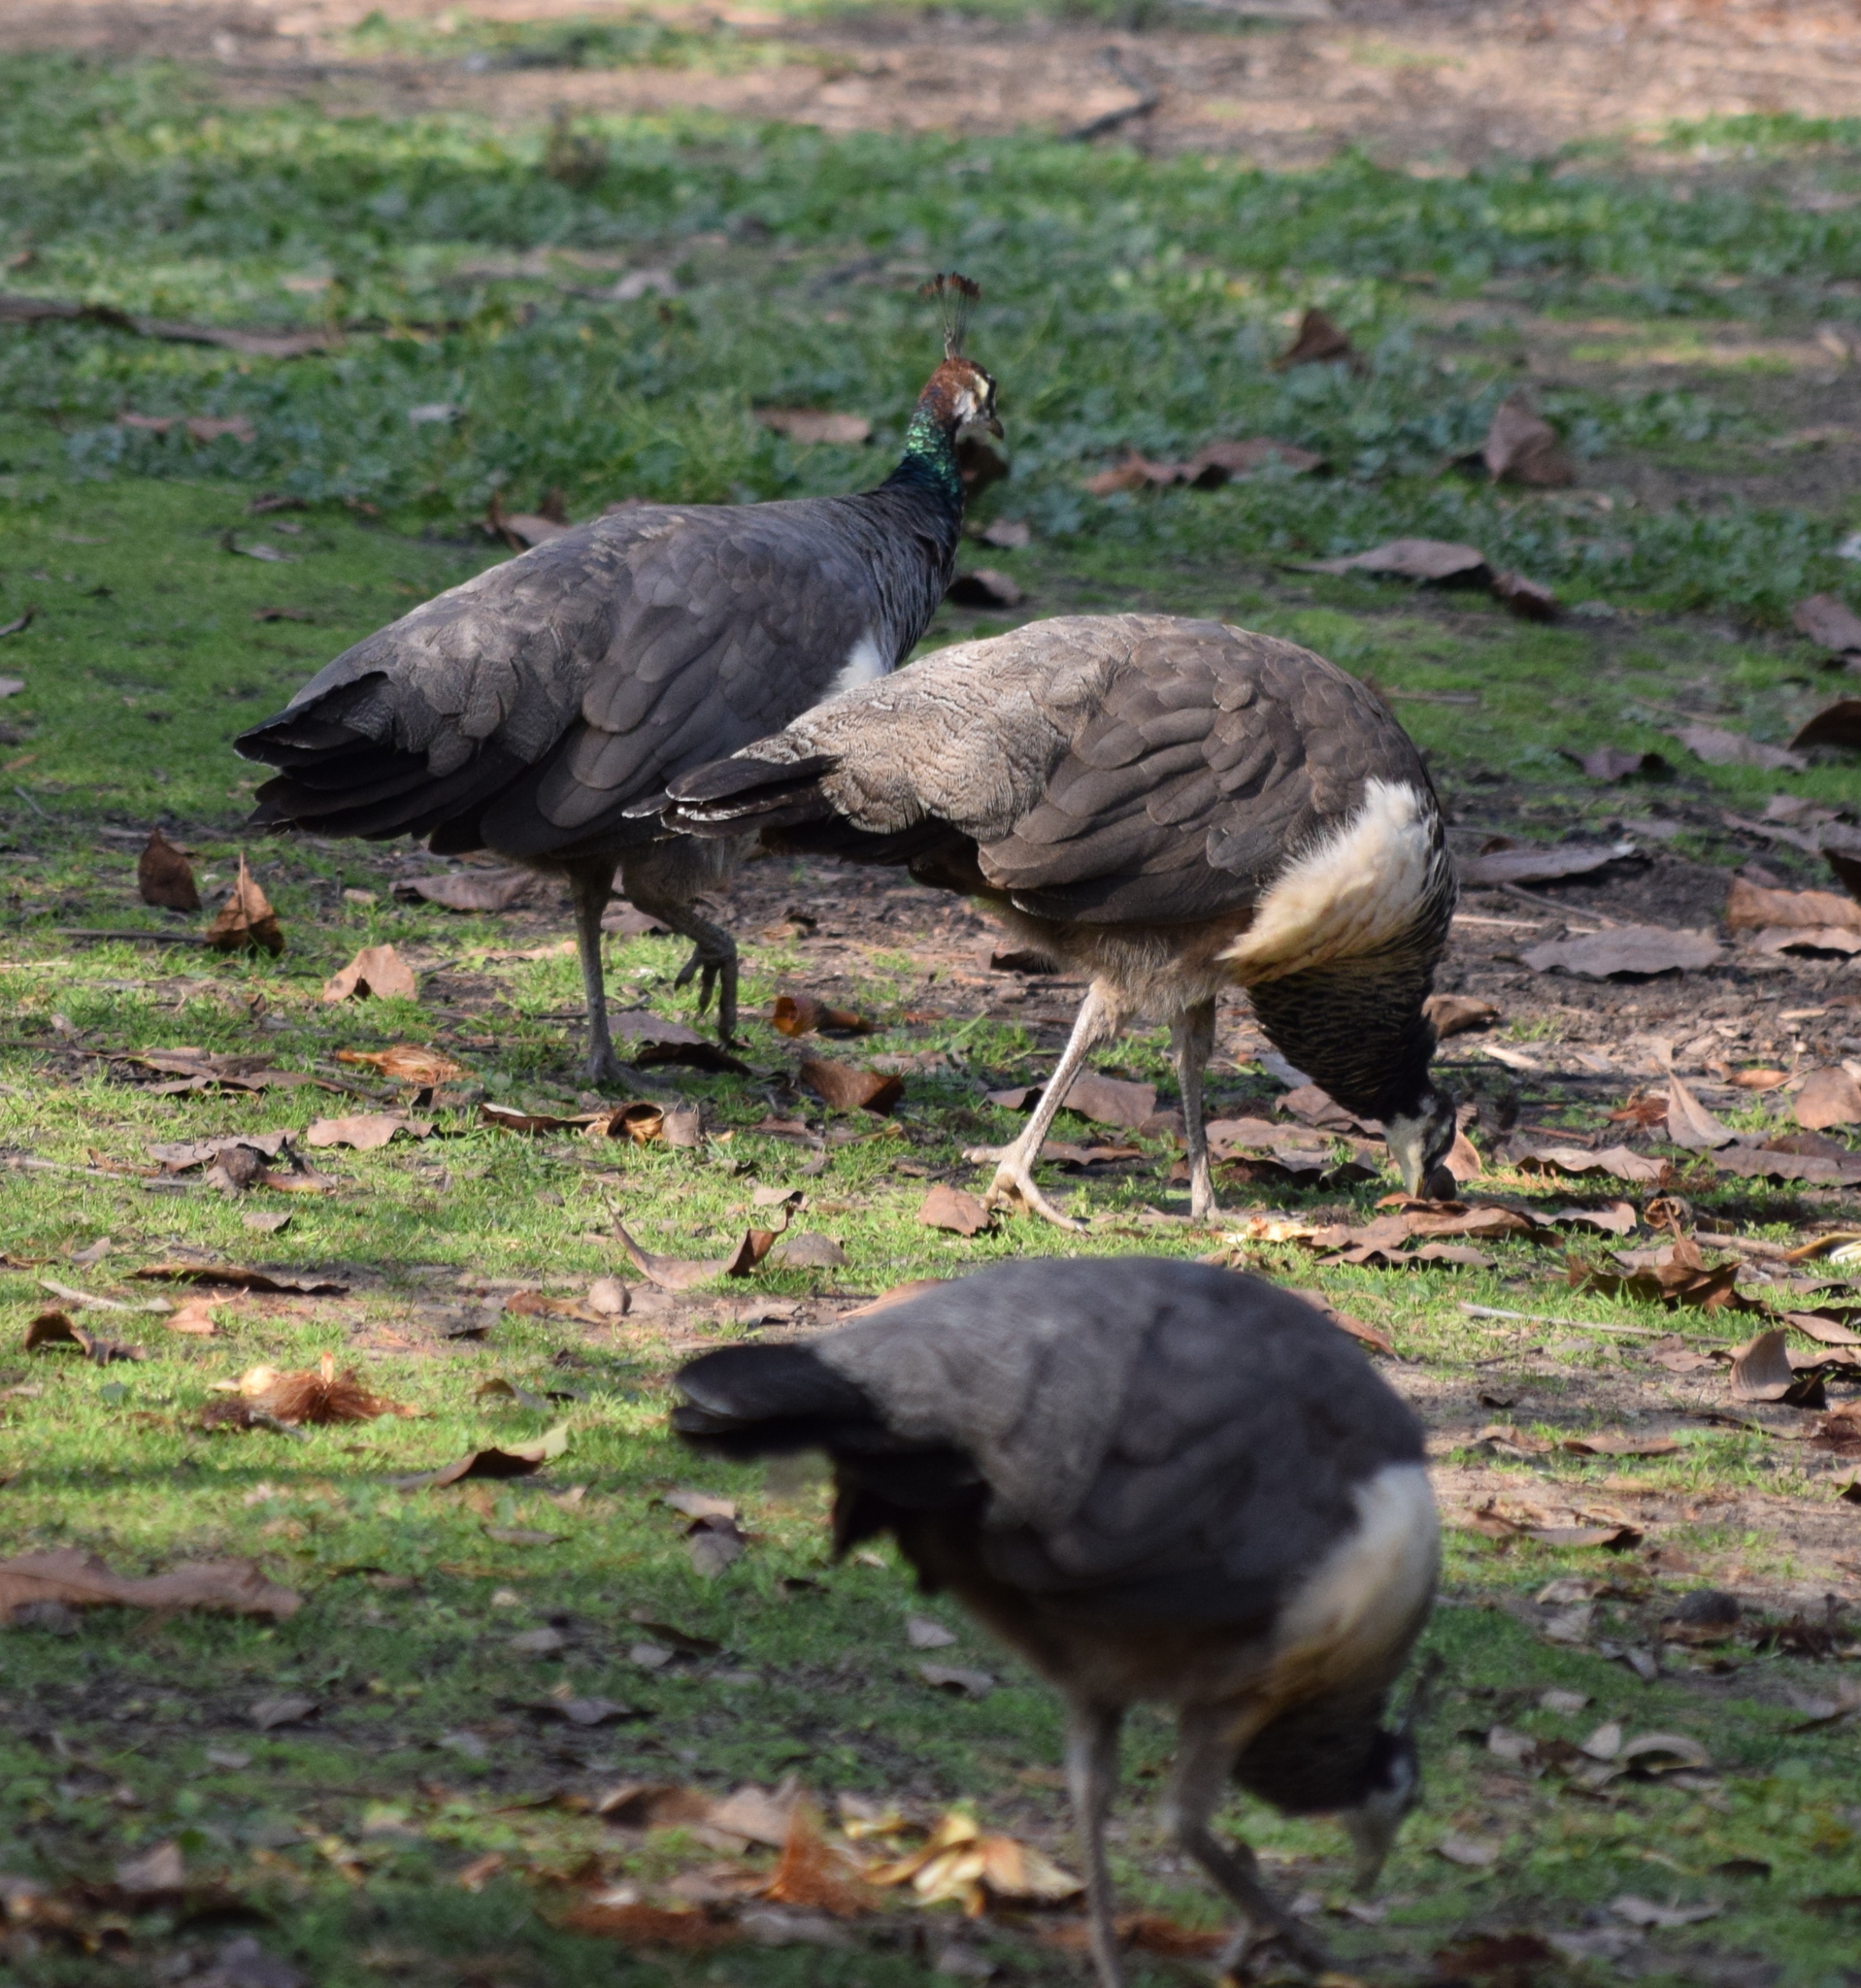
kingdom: Animalia
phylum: Chordata
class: Aves
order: Galliformes
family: Phasianidae
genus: Pavo
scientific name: Pavo cristatus
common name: Indian peafowl
